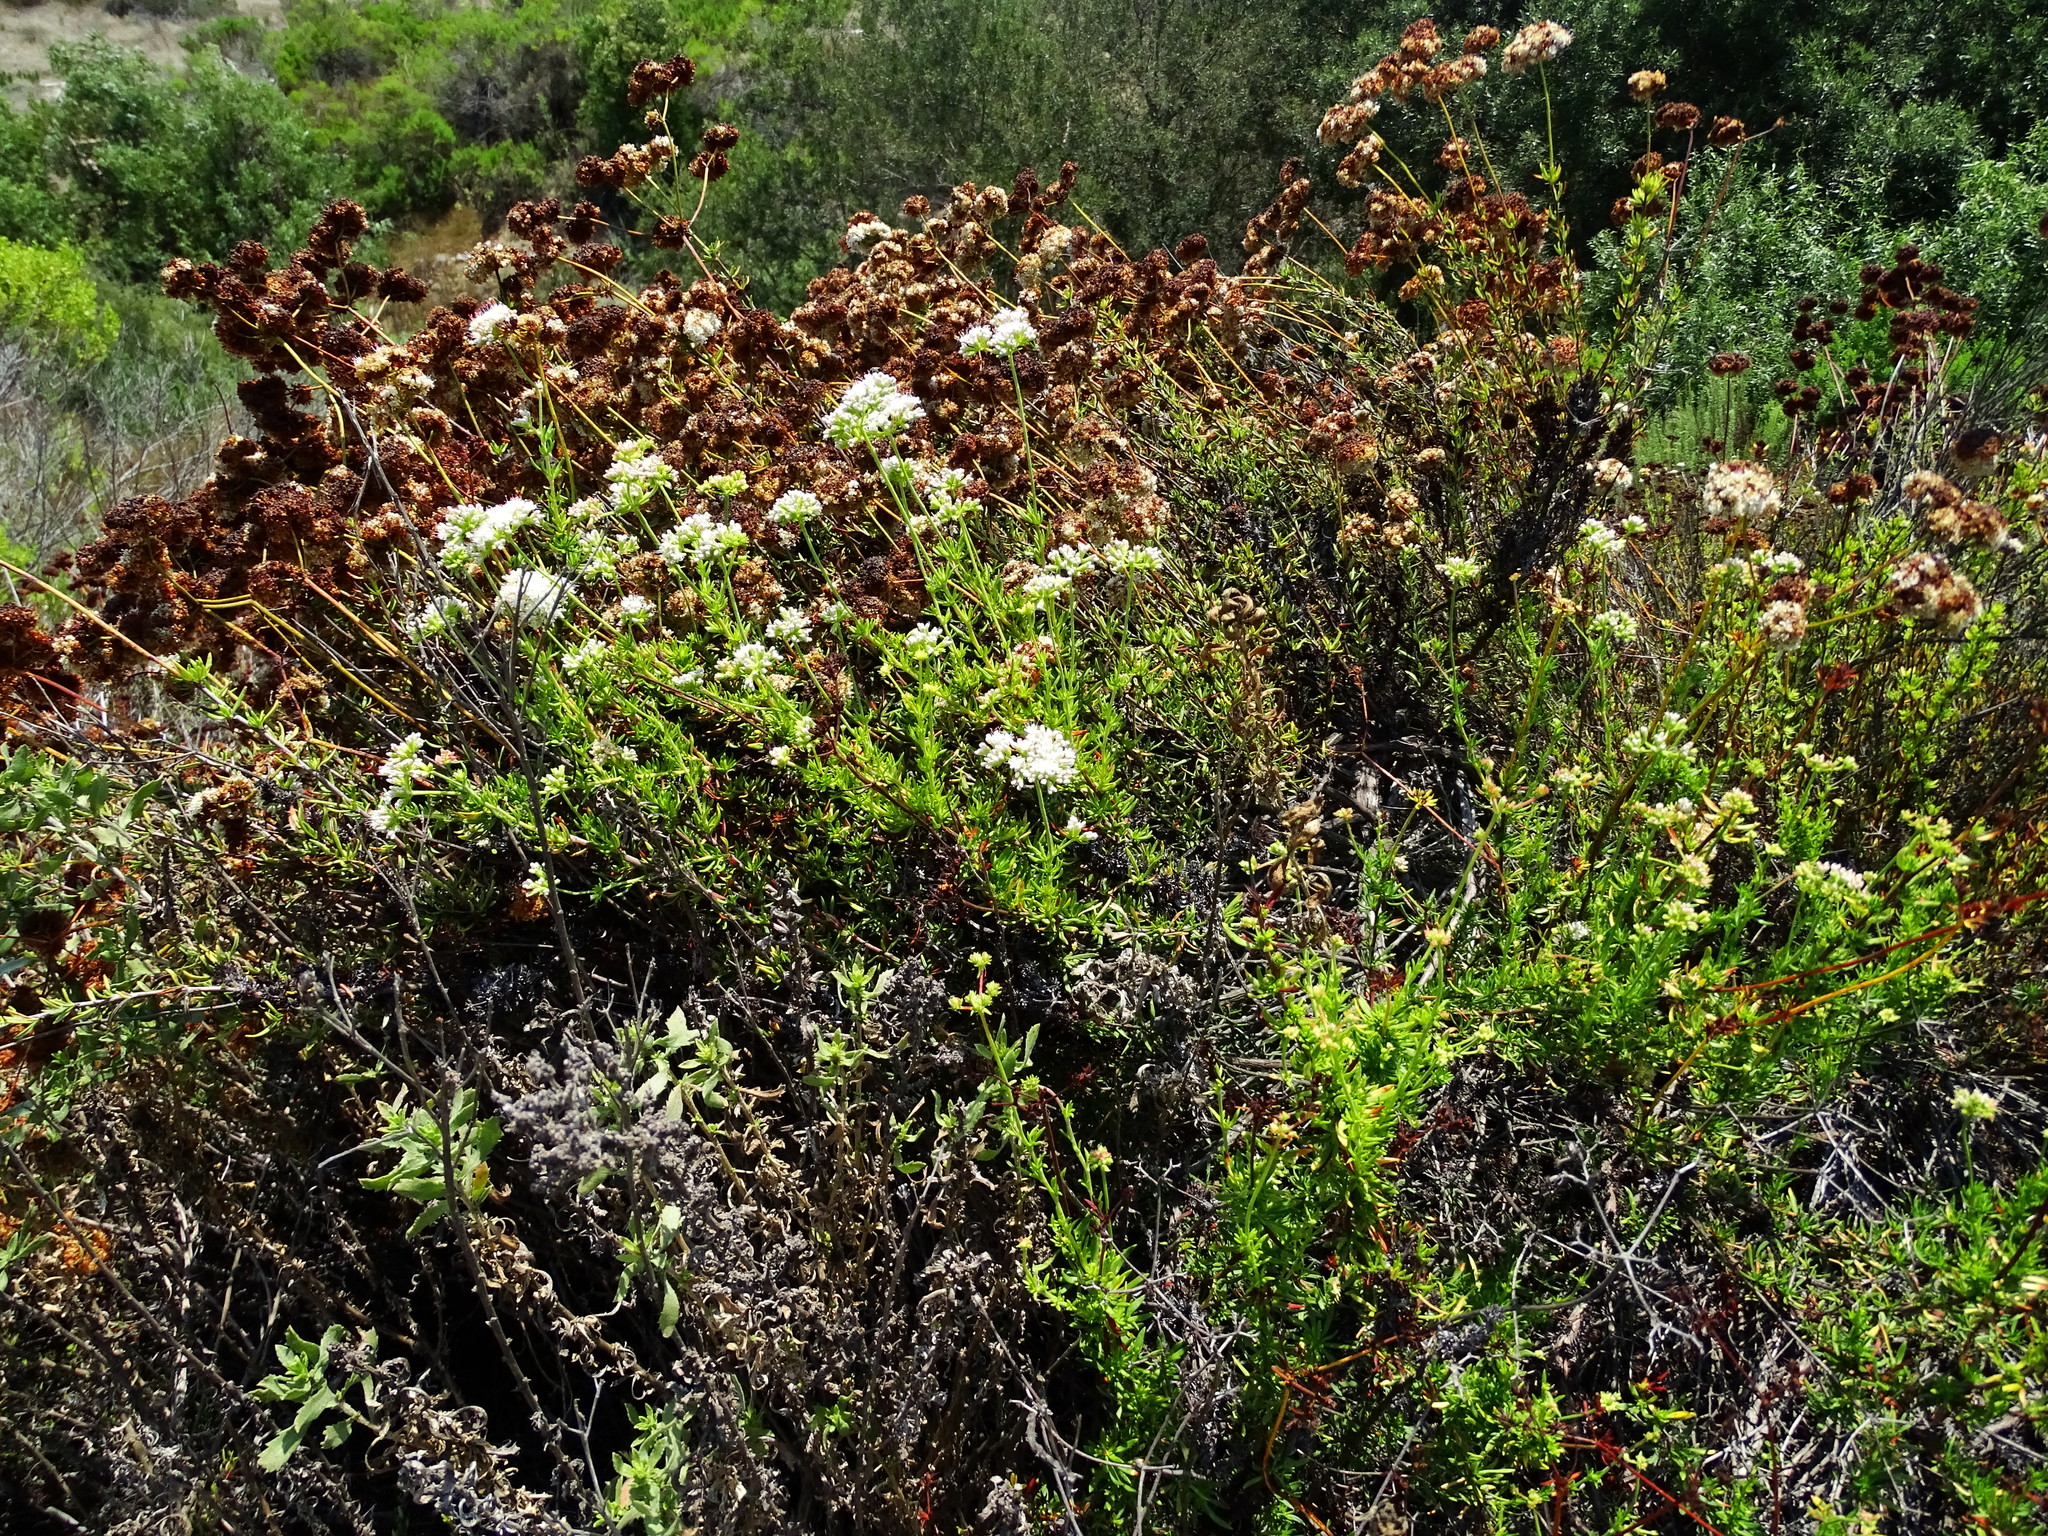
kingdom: Plantae
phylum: Tracheophyta
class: Magnoliopsida
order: Caryophyllales
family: Polygonaceae
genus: Eriogonum
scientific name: Eriogonum fasciculatum
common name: California wild buckwheat
